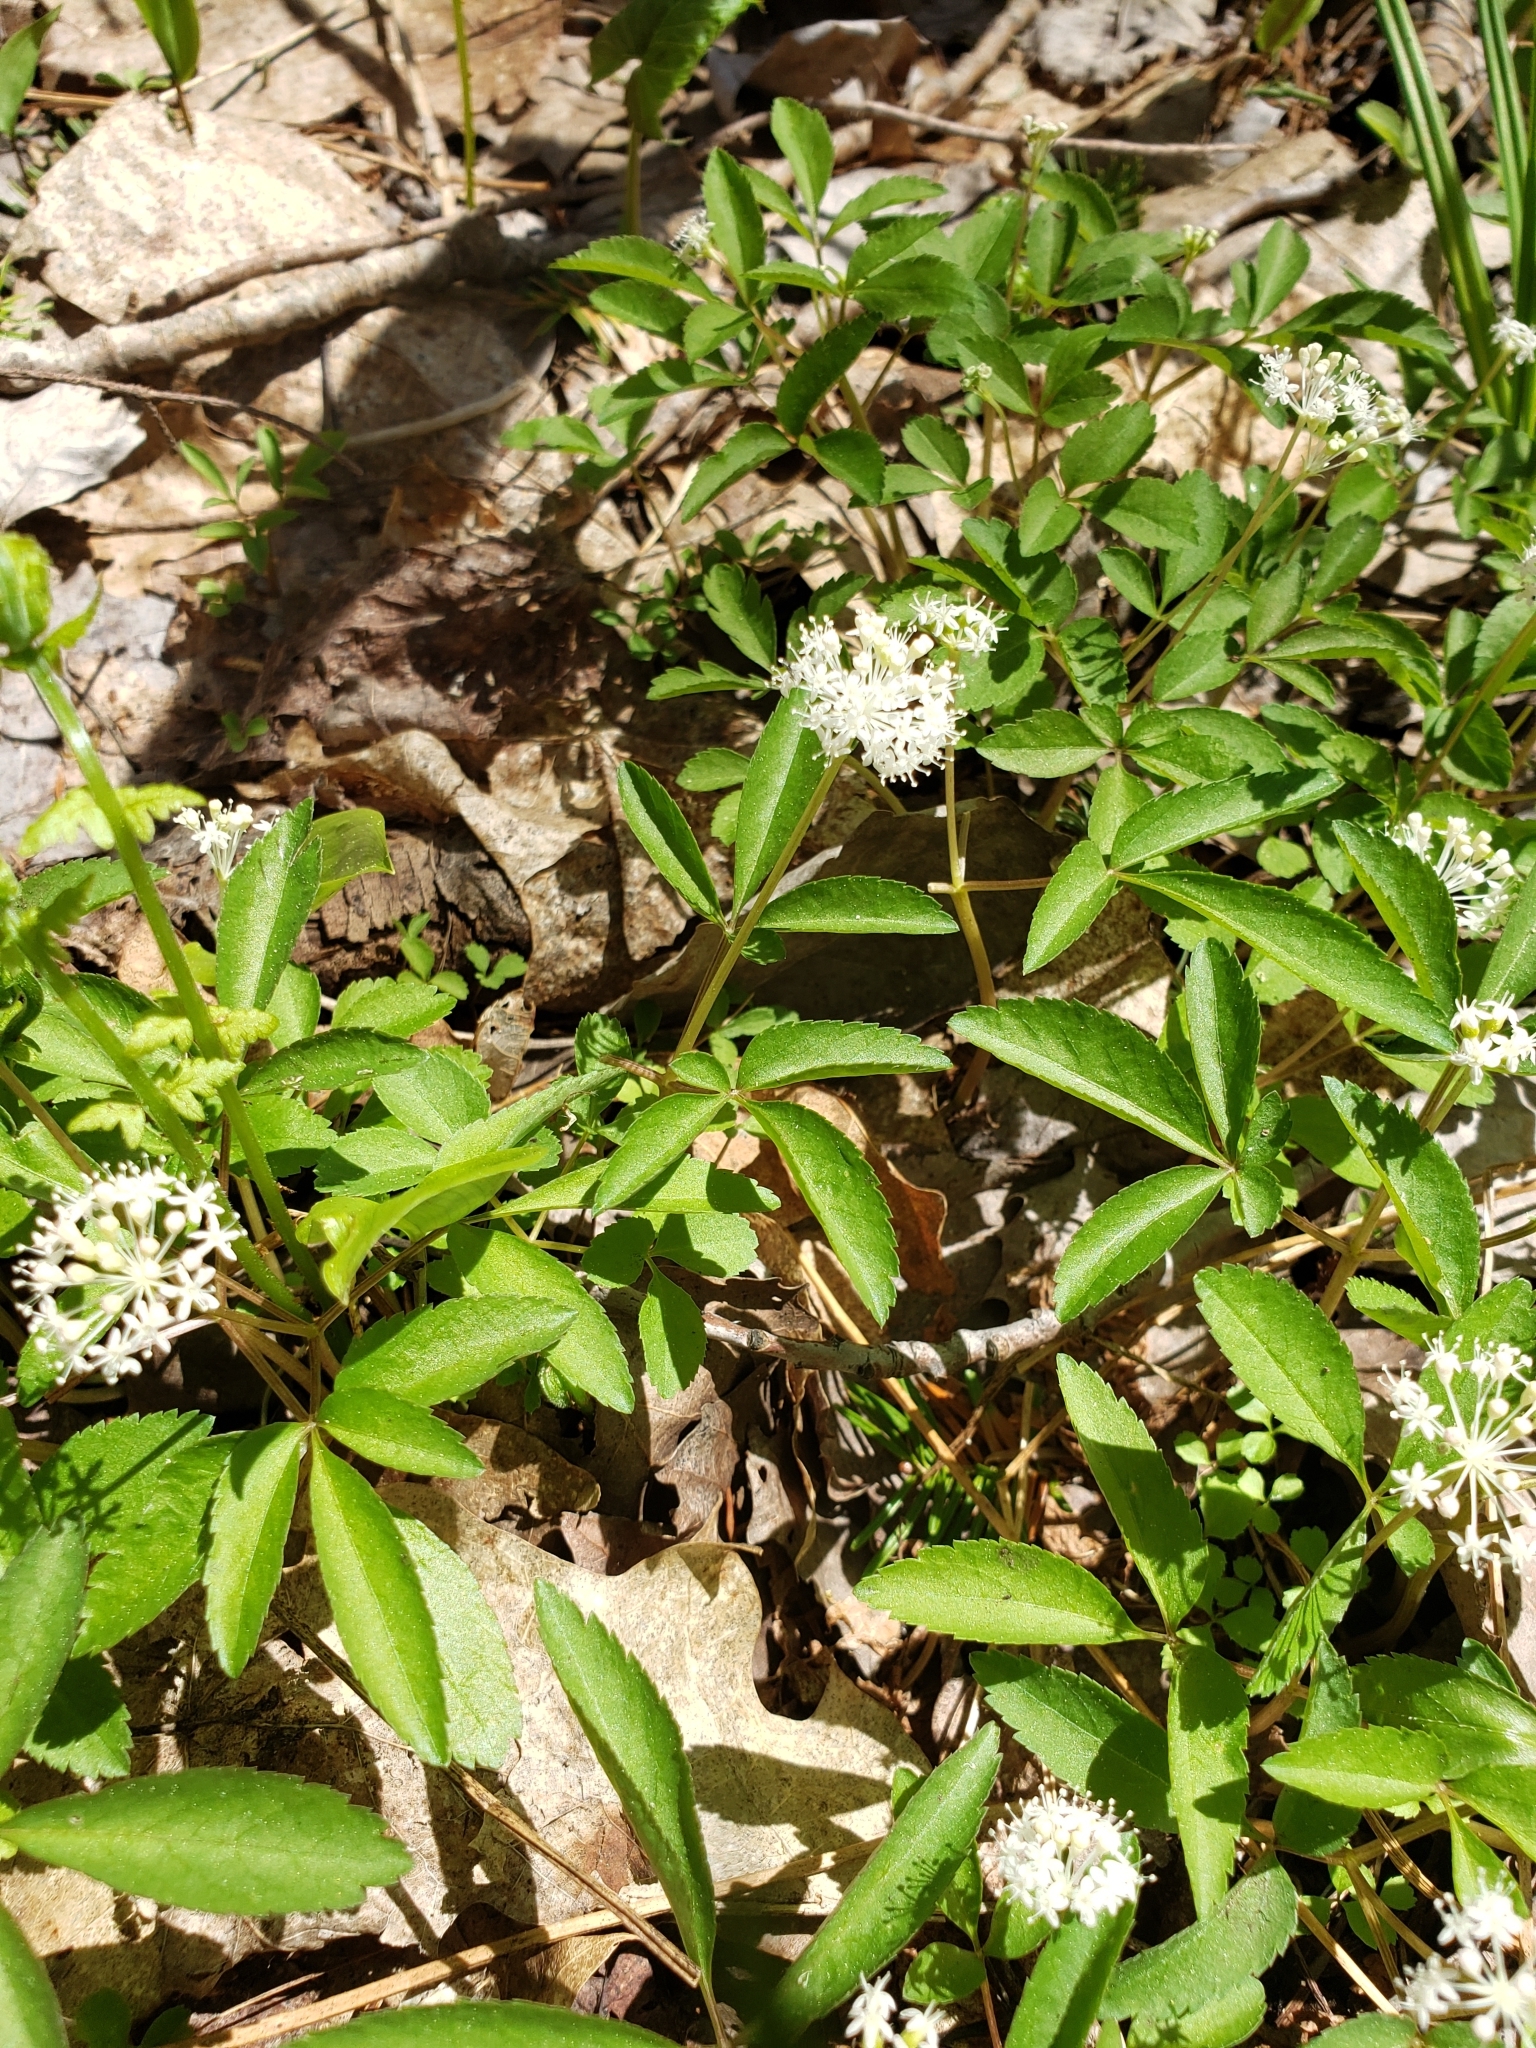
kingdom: Plantae
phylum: Tracheophyta
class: Magnoliopsida
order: Apiales
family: Araliaceae
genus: Panax
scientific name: Panax trifolius
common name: Dwarf ginseng
